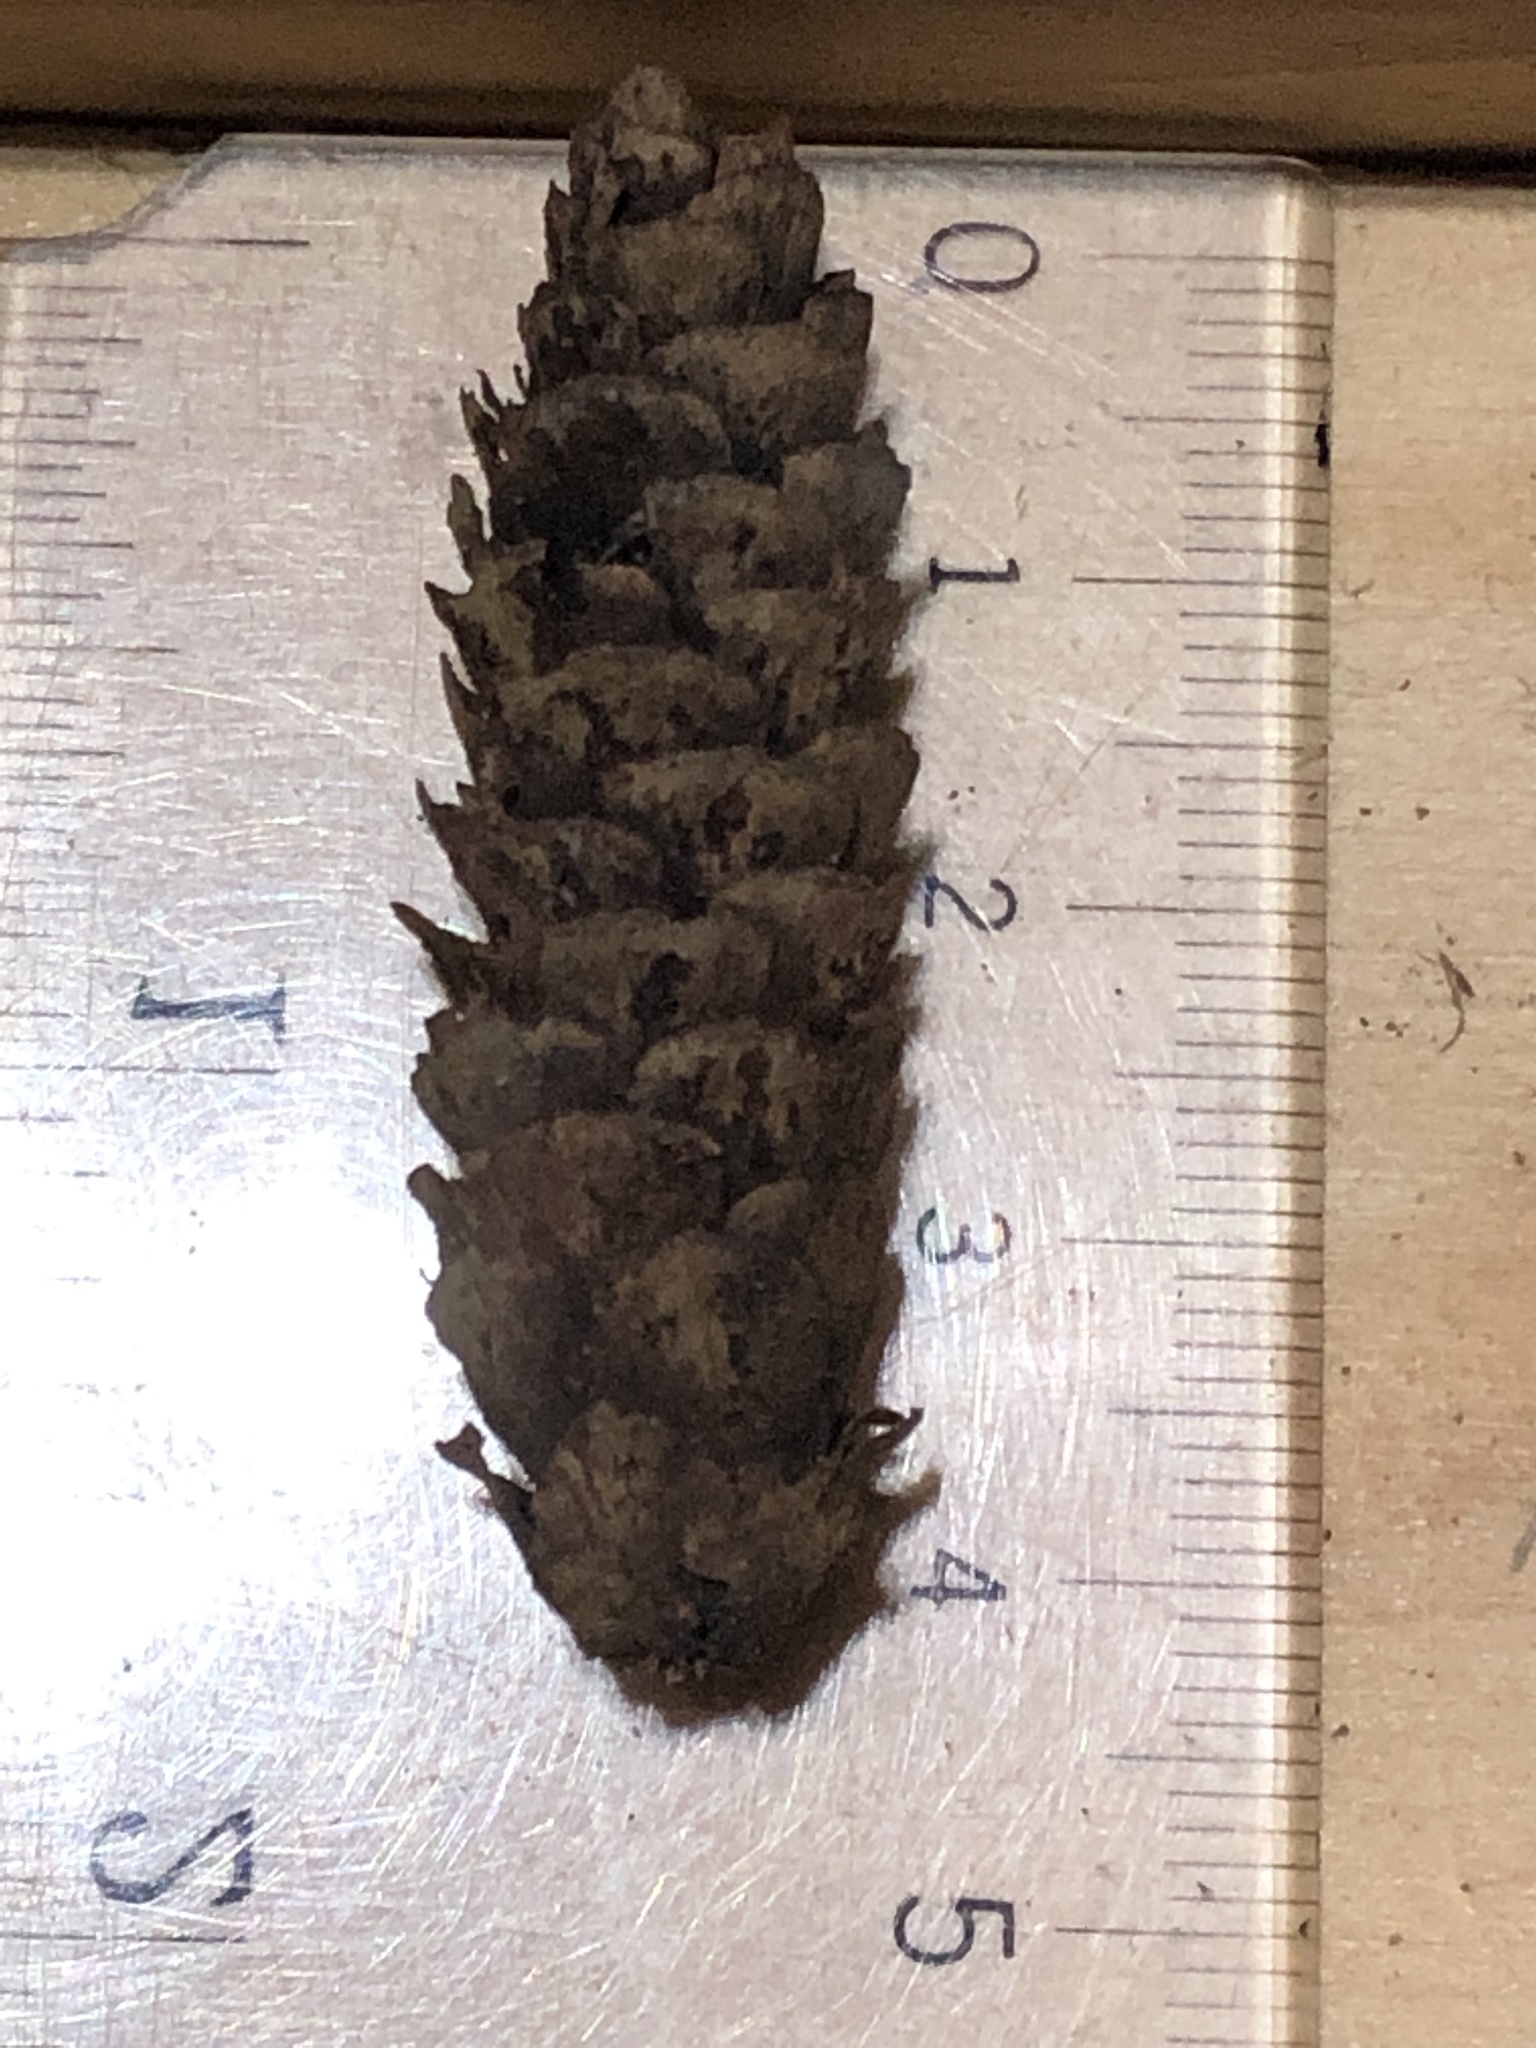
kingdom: Plantae
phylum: Tracheophyta
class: Pinopsida
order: Pinales
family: Pinaceae
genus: Picea
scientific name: Picea glauca
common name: White spruce
